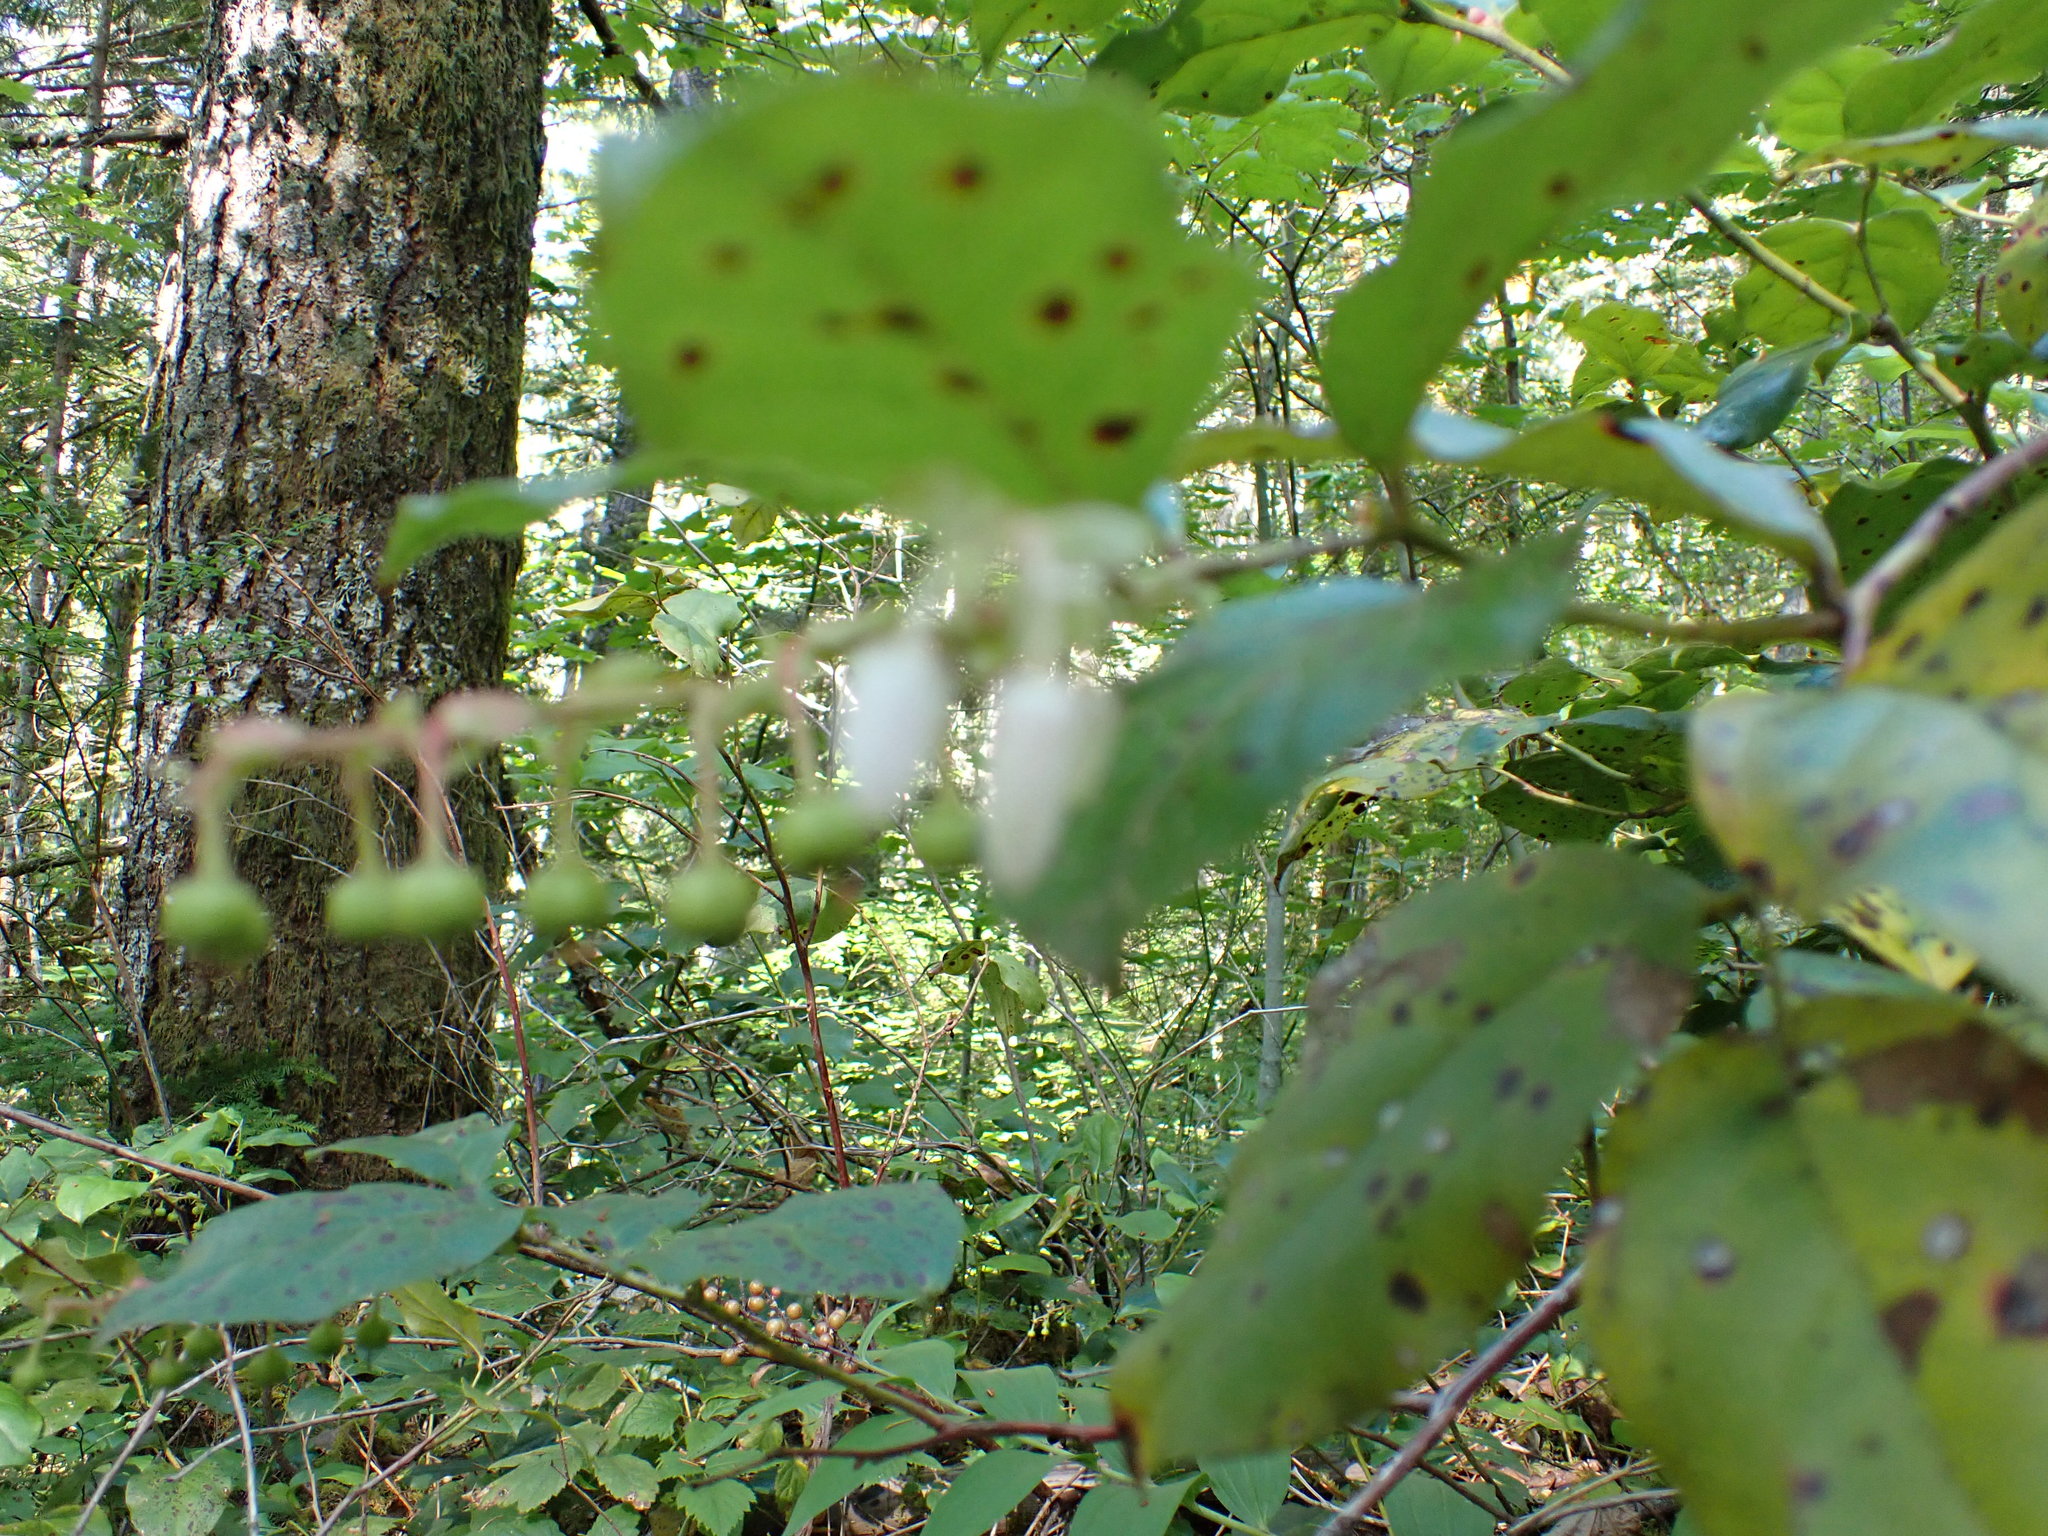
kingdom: Plantae
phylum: Tracheophyta
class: Magnoliopsida
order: Ericales
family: Ericaceae
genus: Gaultheria
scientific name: Gaultheria shallon
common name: Shallon
